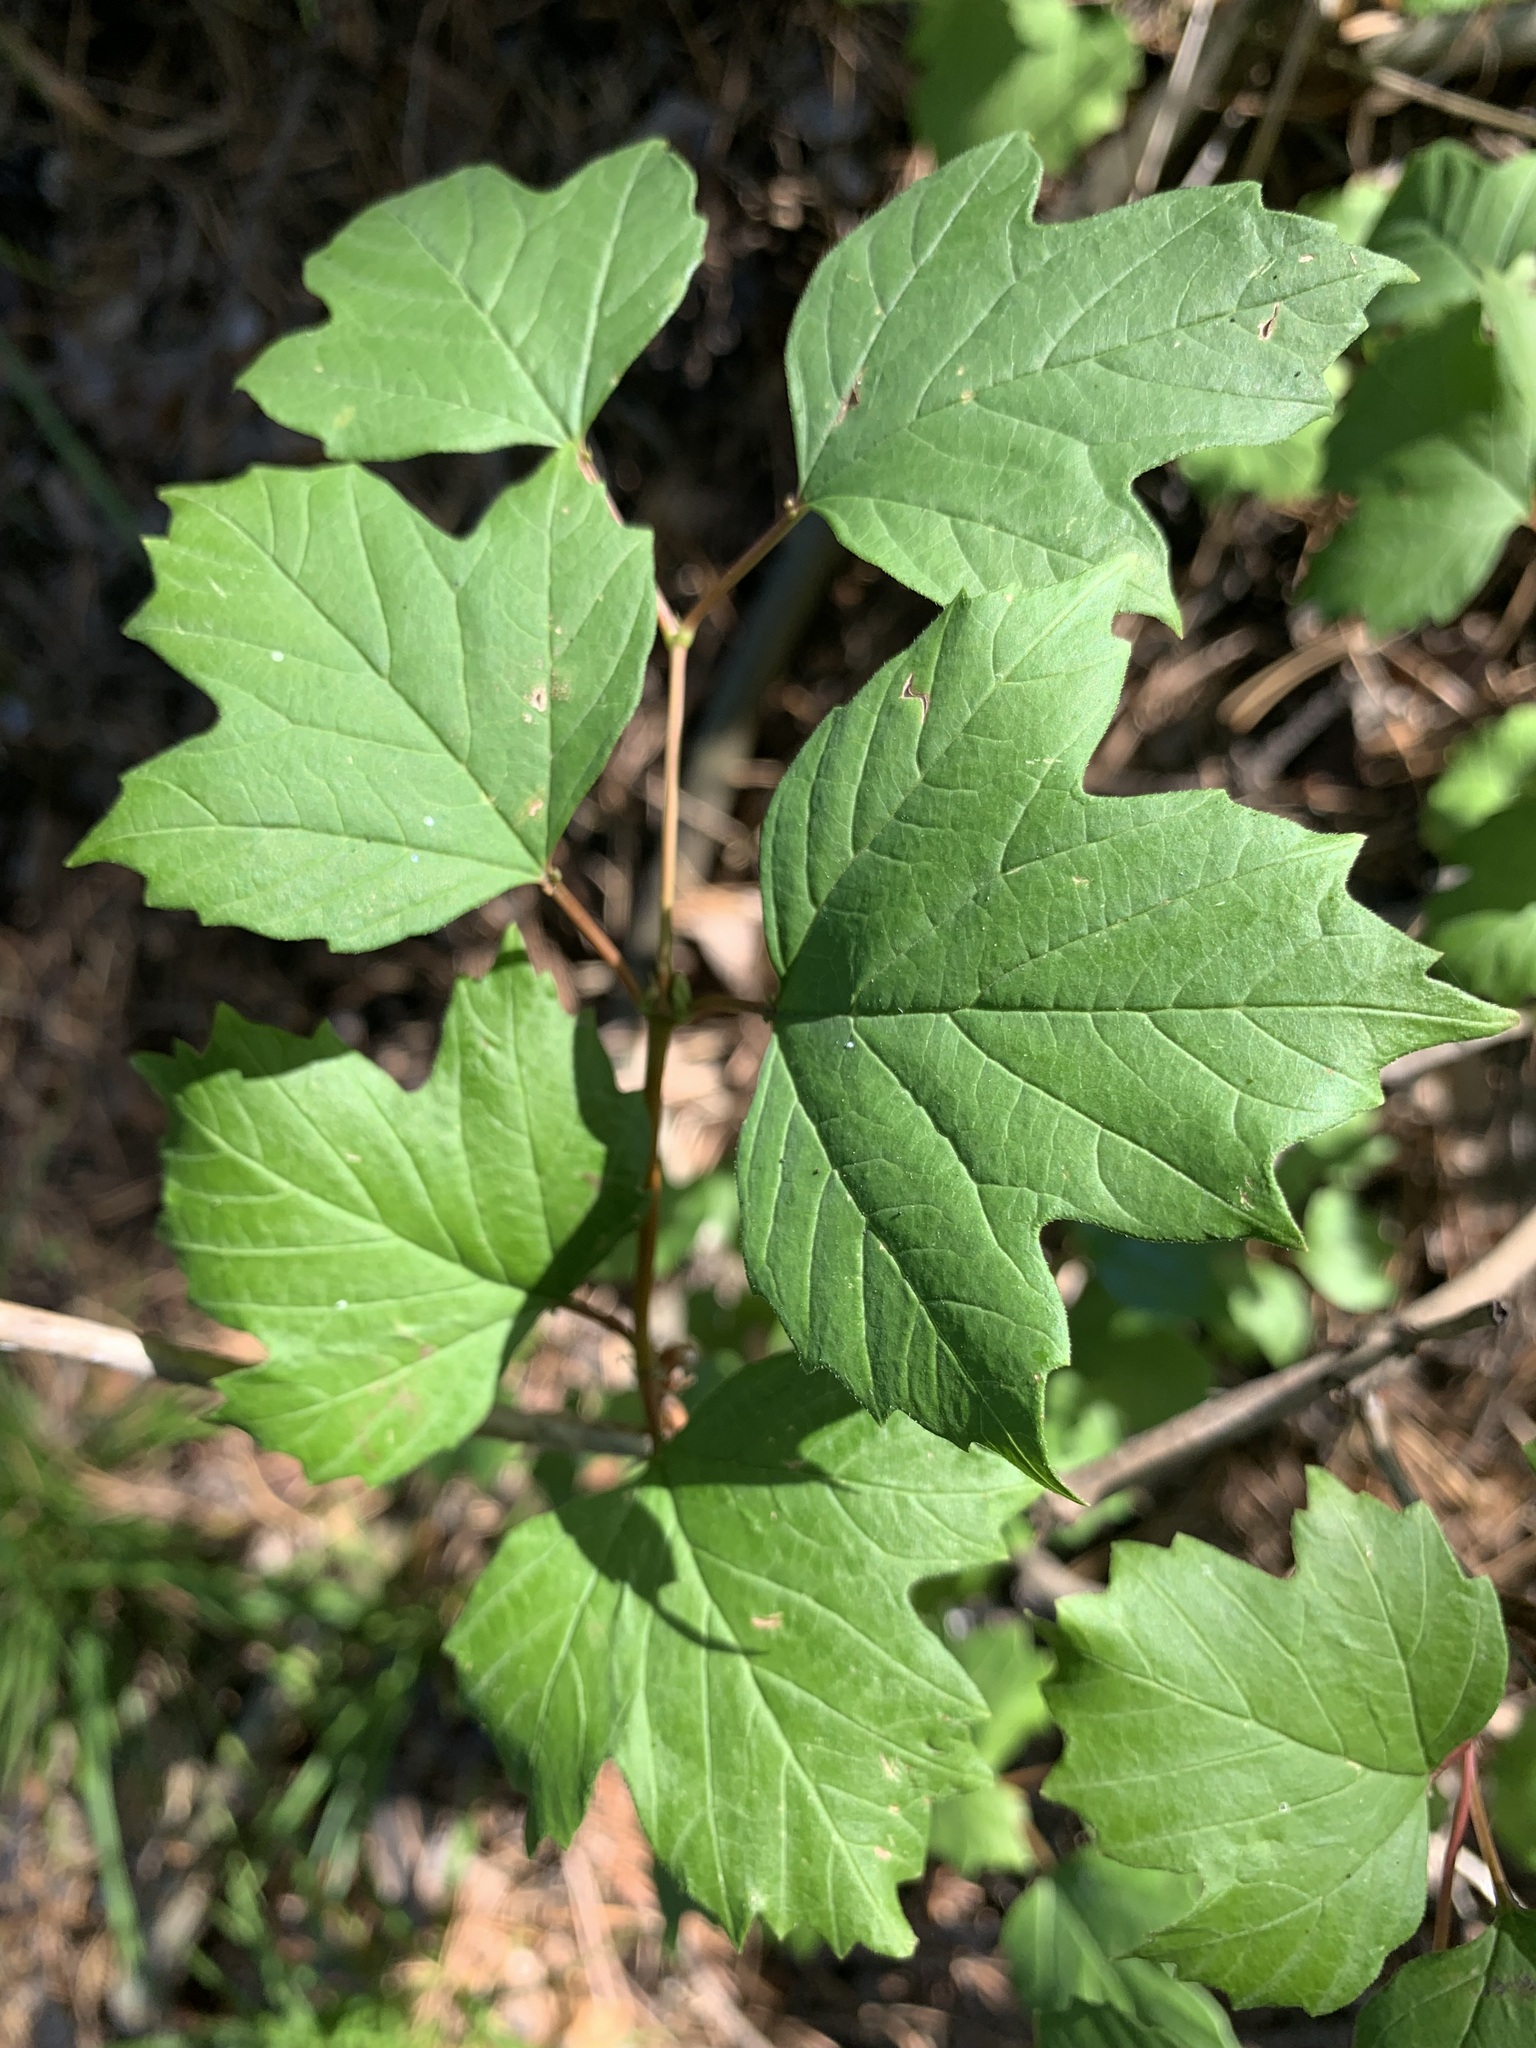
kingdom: Plantae
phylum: Tracheophyta
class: Magnoliopsida
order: Dipsacales
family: Viburnaceae
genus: Viburnum
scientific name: Viburnum opulus
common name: Guelder-rose
